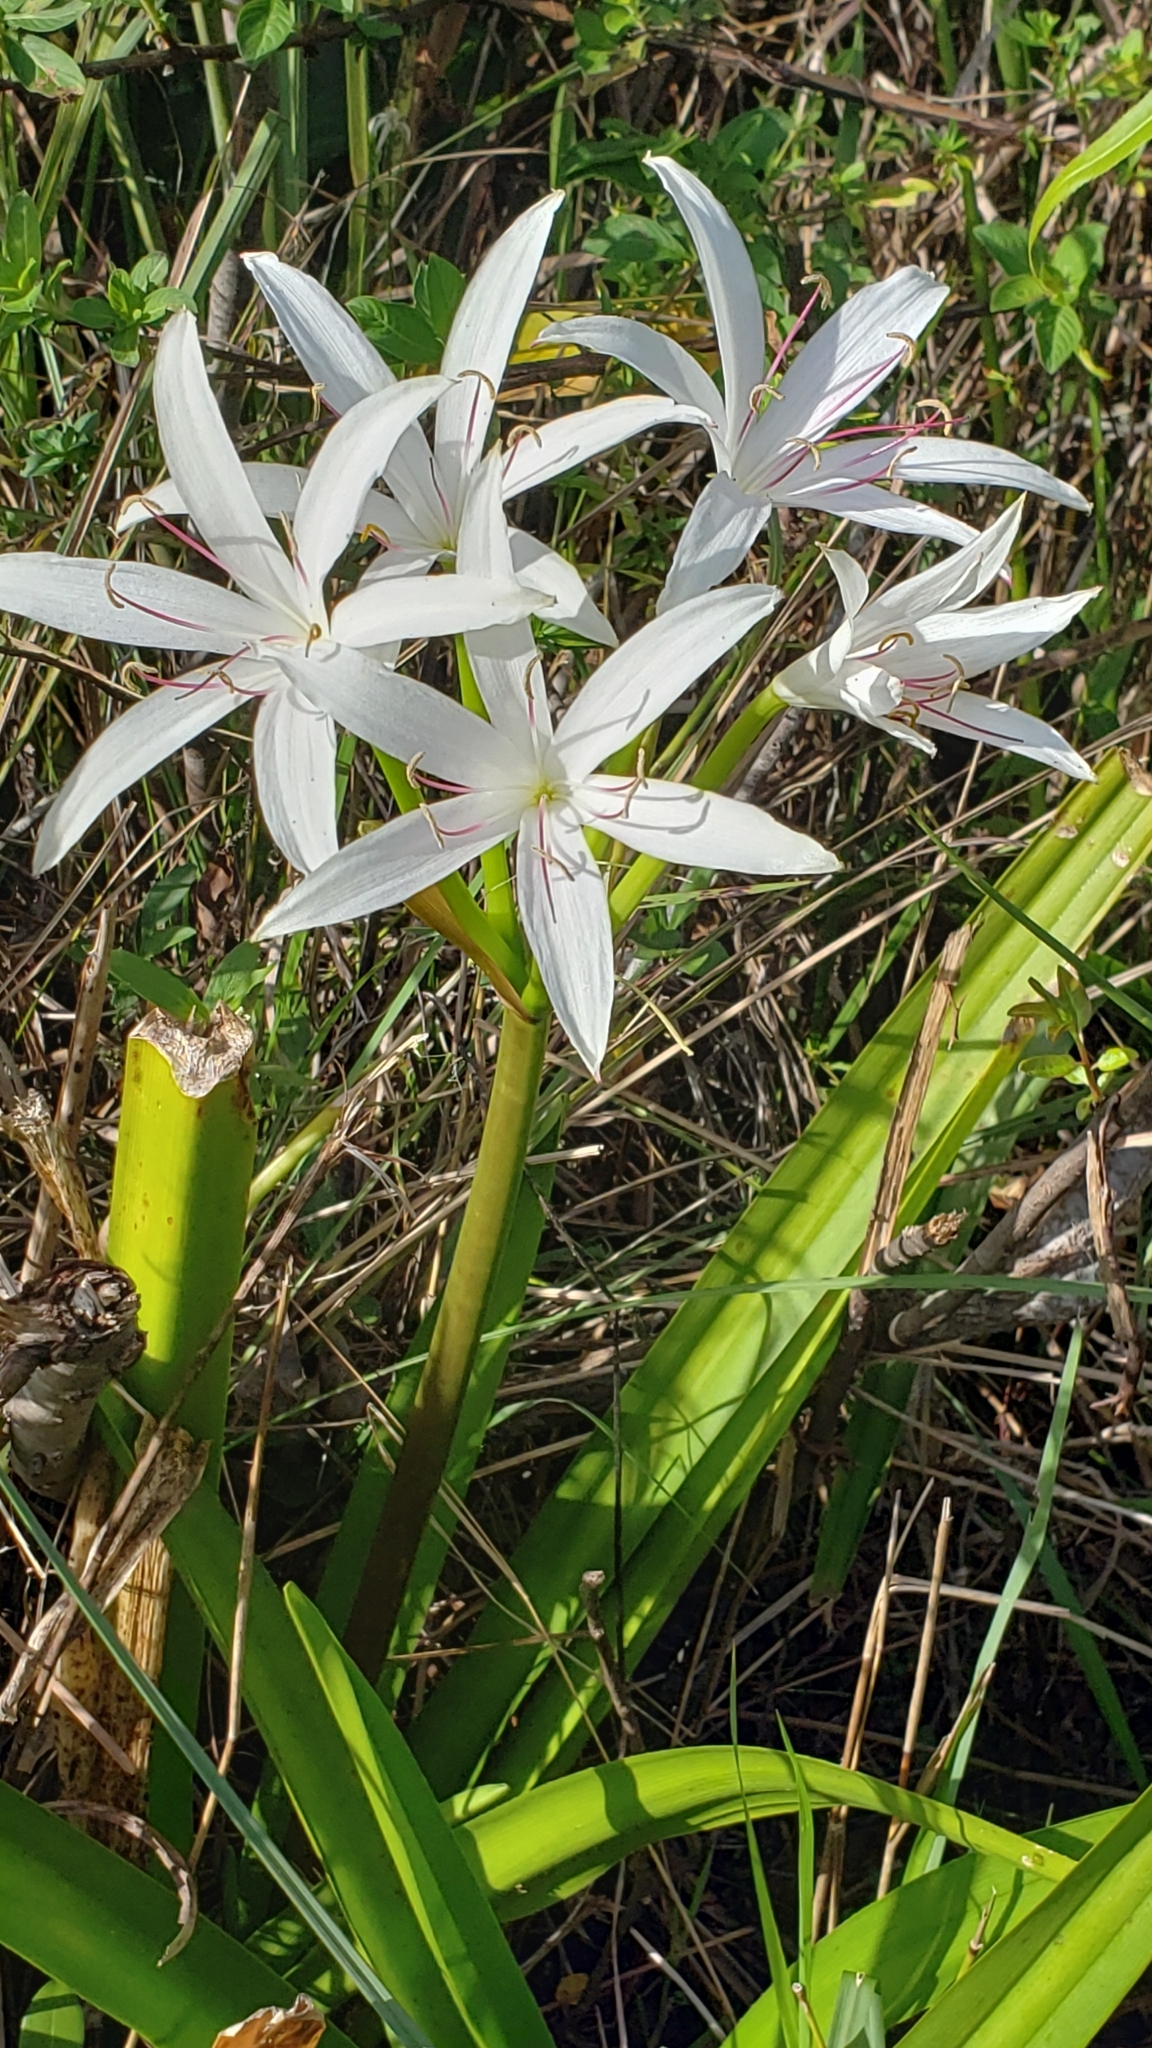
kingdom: Plantae
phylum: Tracheophyta
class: Liliopsida
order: Asparagales
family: Amaryllidaceae
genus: Crinum
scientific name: Crinum americanum
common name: Florida swamp-lily
